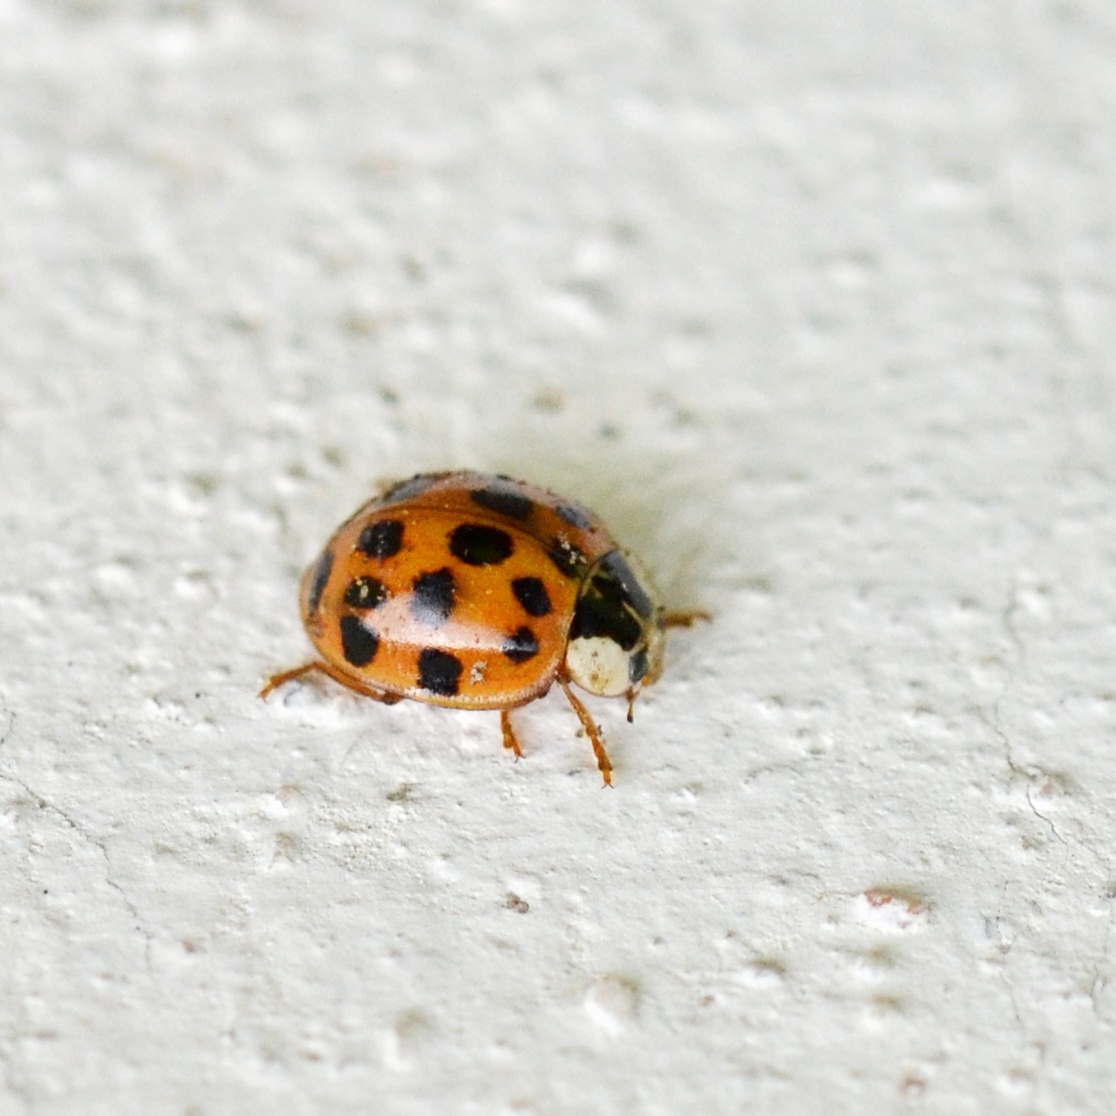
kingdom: Animalia
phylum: Arthropoda
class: Insecta
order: Coleoptera
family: Coccinellidae
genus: Harmonia
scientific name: Harmonia axyridis
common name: Harlequin ladybird
